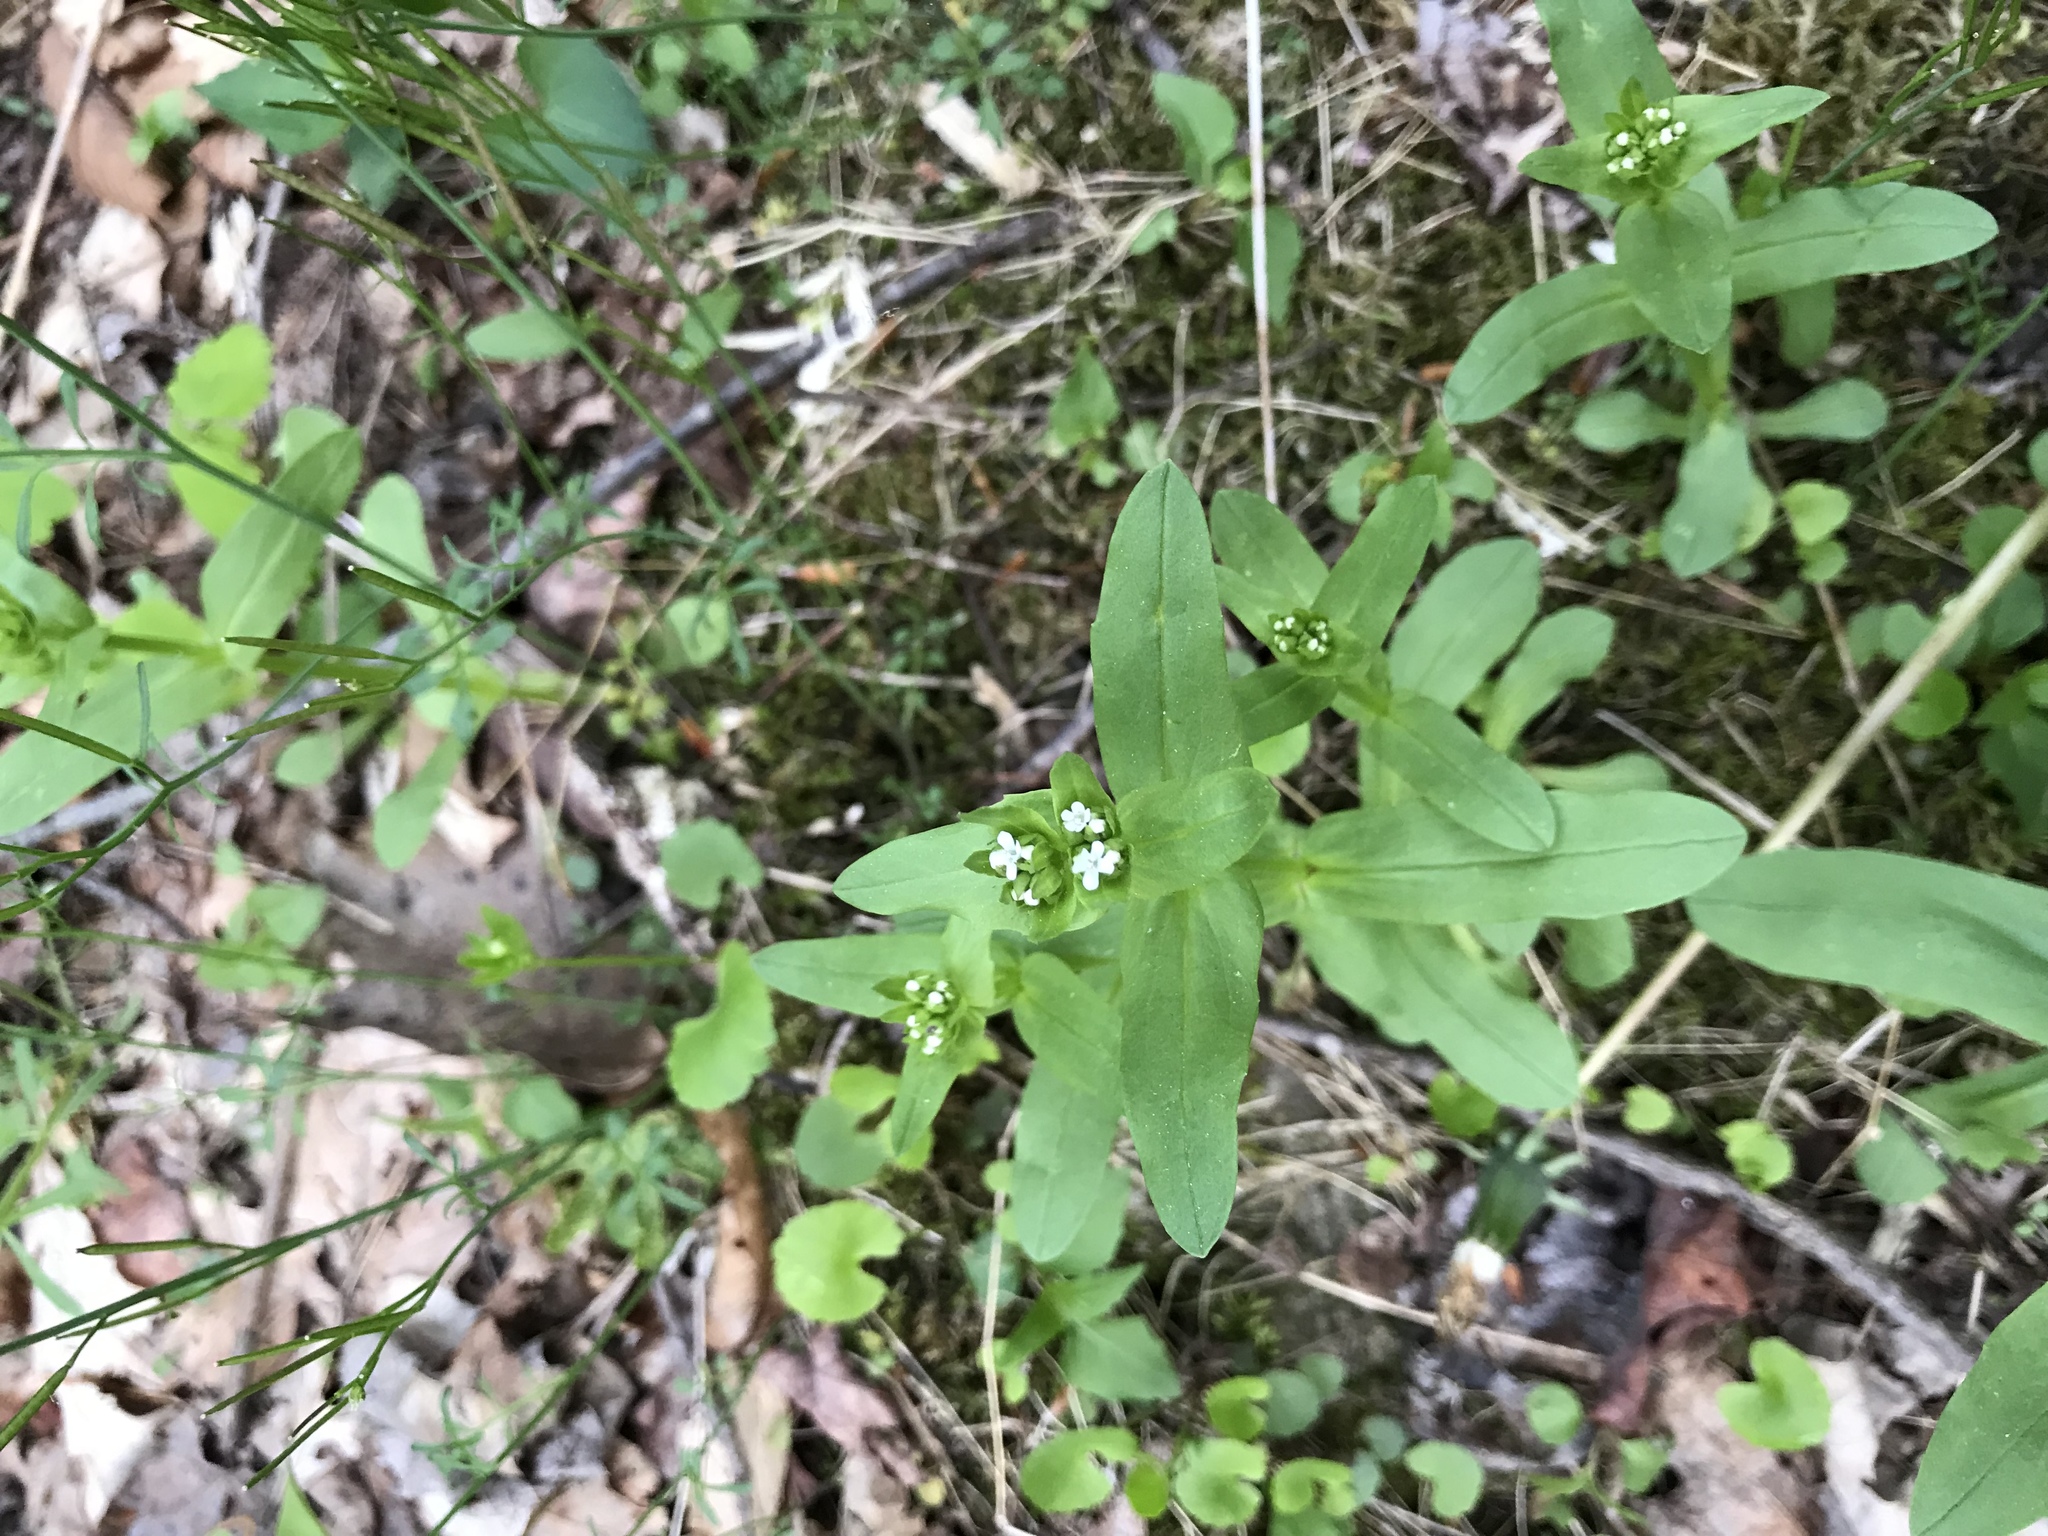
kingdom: Plantae
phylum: Tracheophyta
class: Magnoliopsida
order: Dipsacales
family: Caprifoliaceae
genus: Valerianella
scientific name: Valerianella locusta
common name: Common cornsalad
